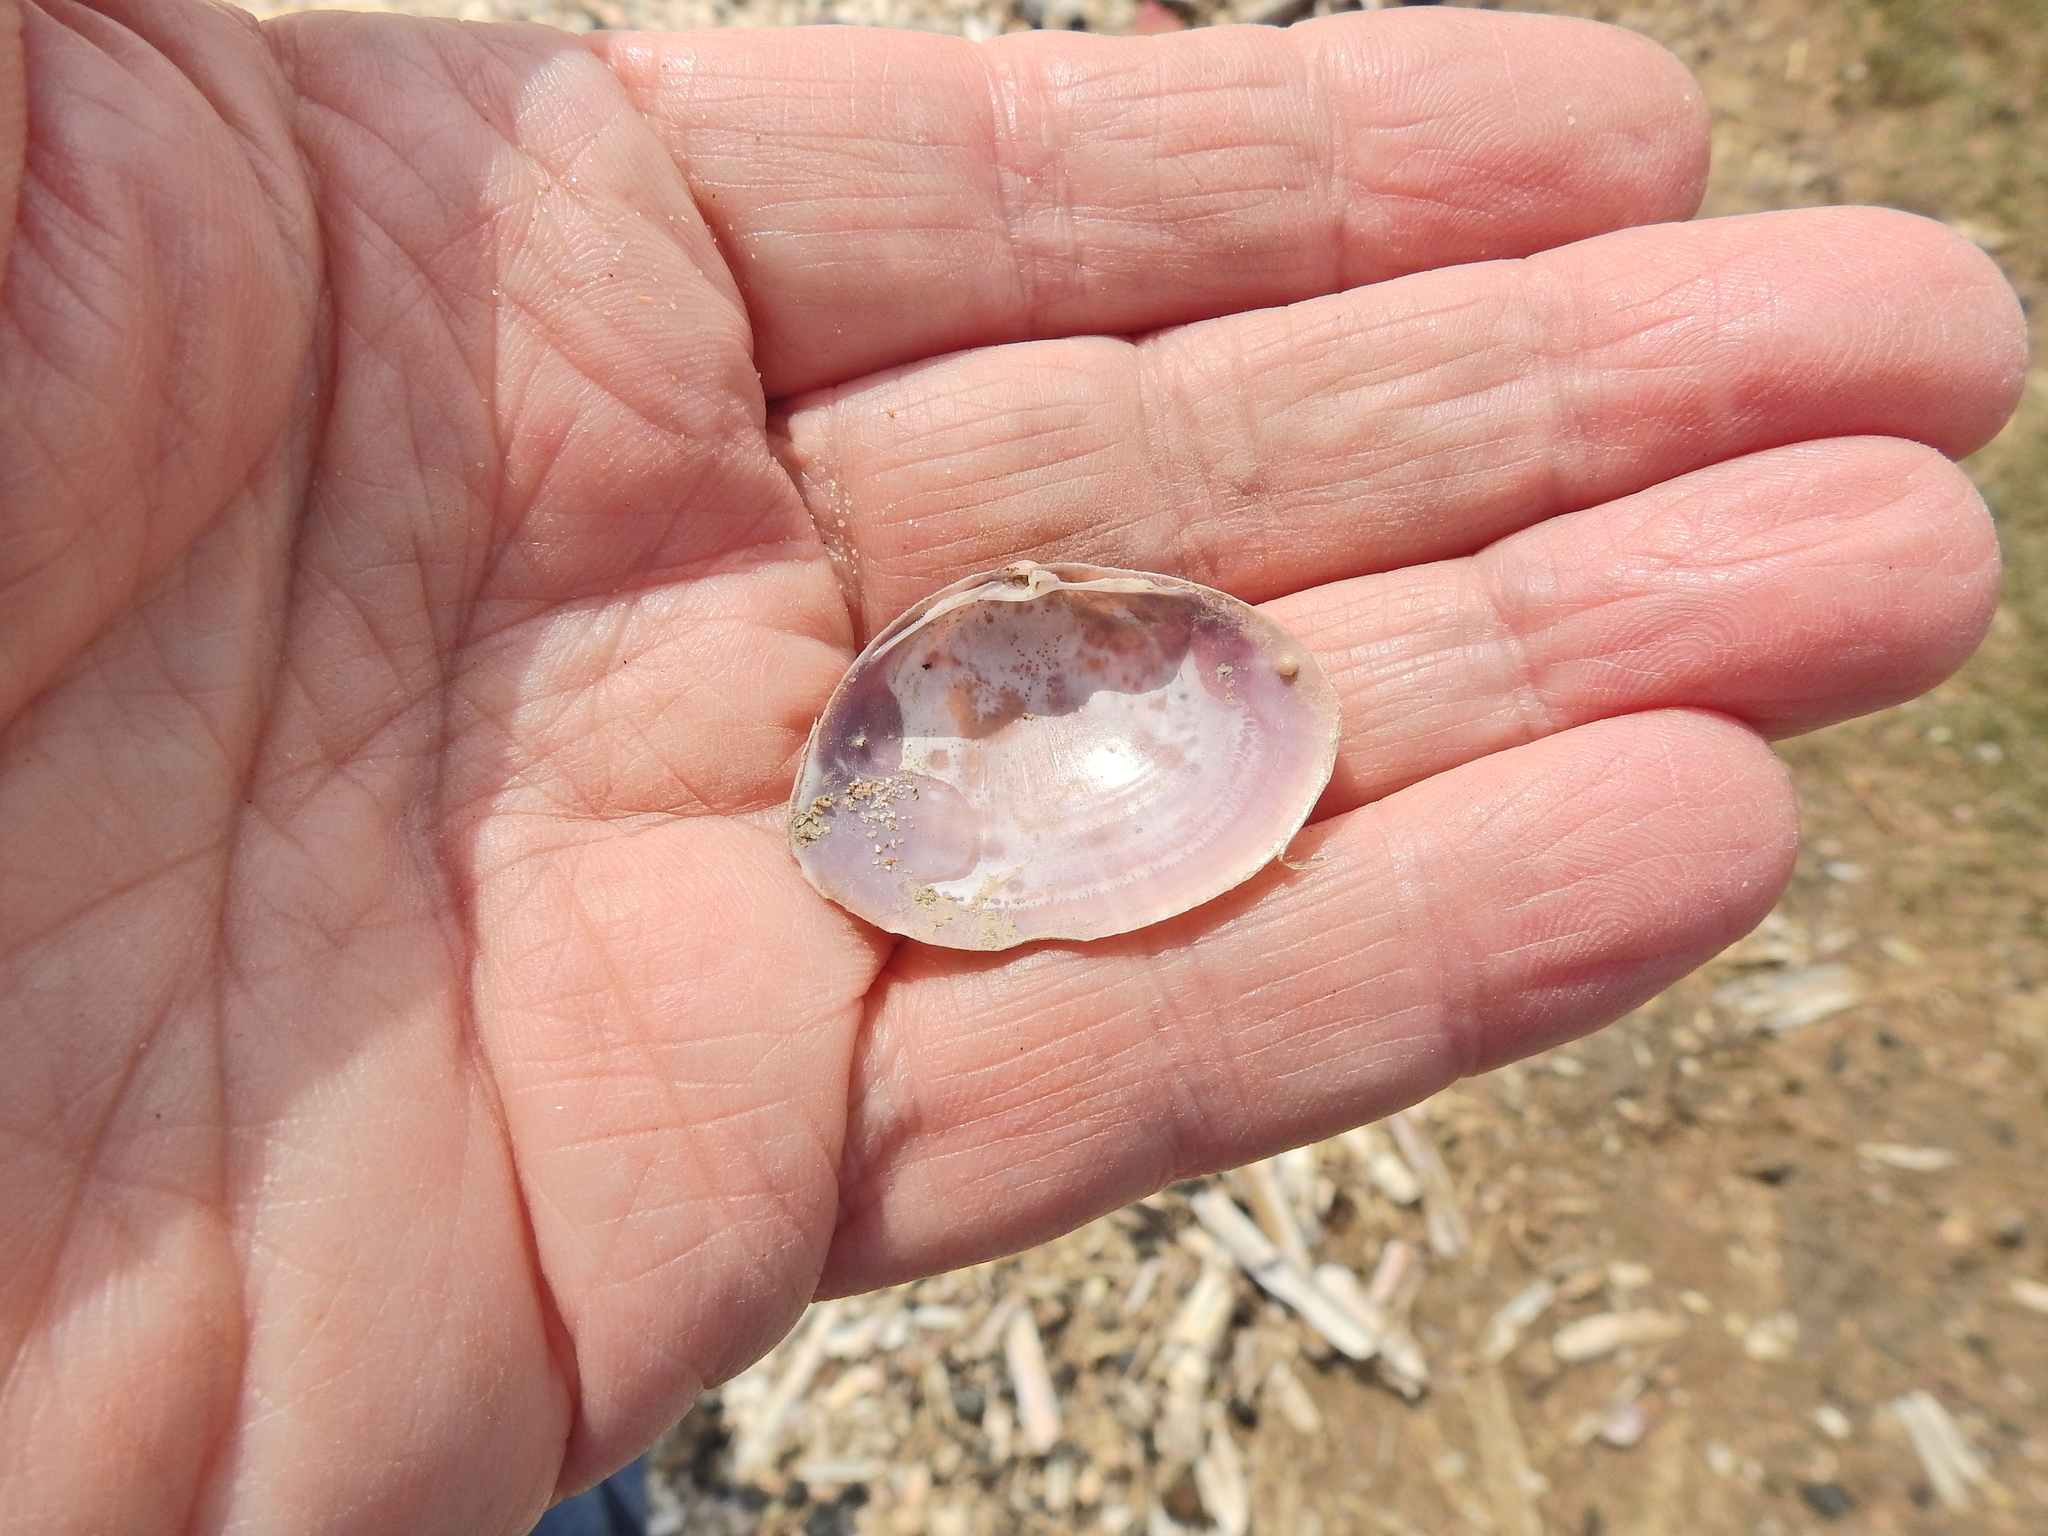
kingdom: Animalia
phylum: Mollusca
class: Bivalvia
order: Venerida
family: Mactridae
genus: Mactra
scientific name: Mactra stultorum
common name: Rayed trough shell
